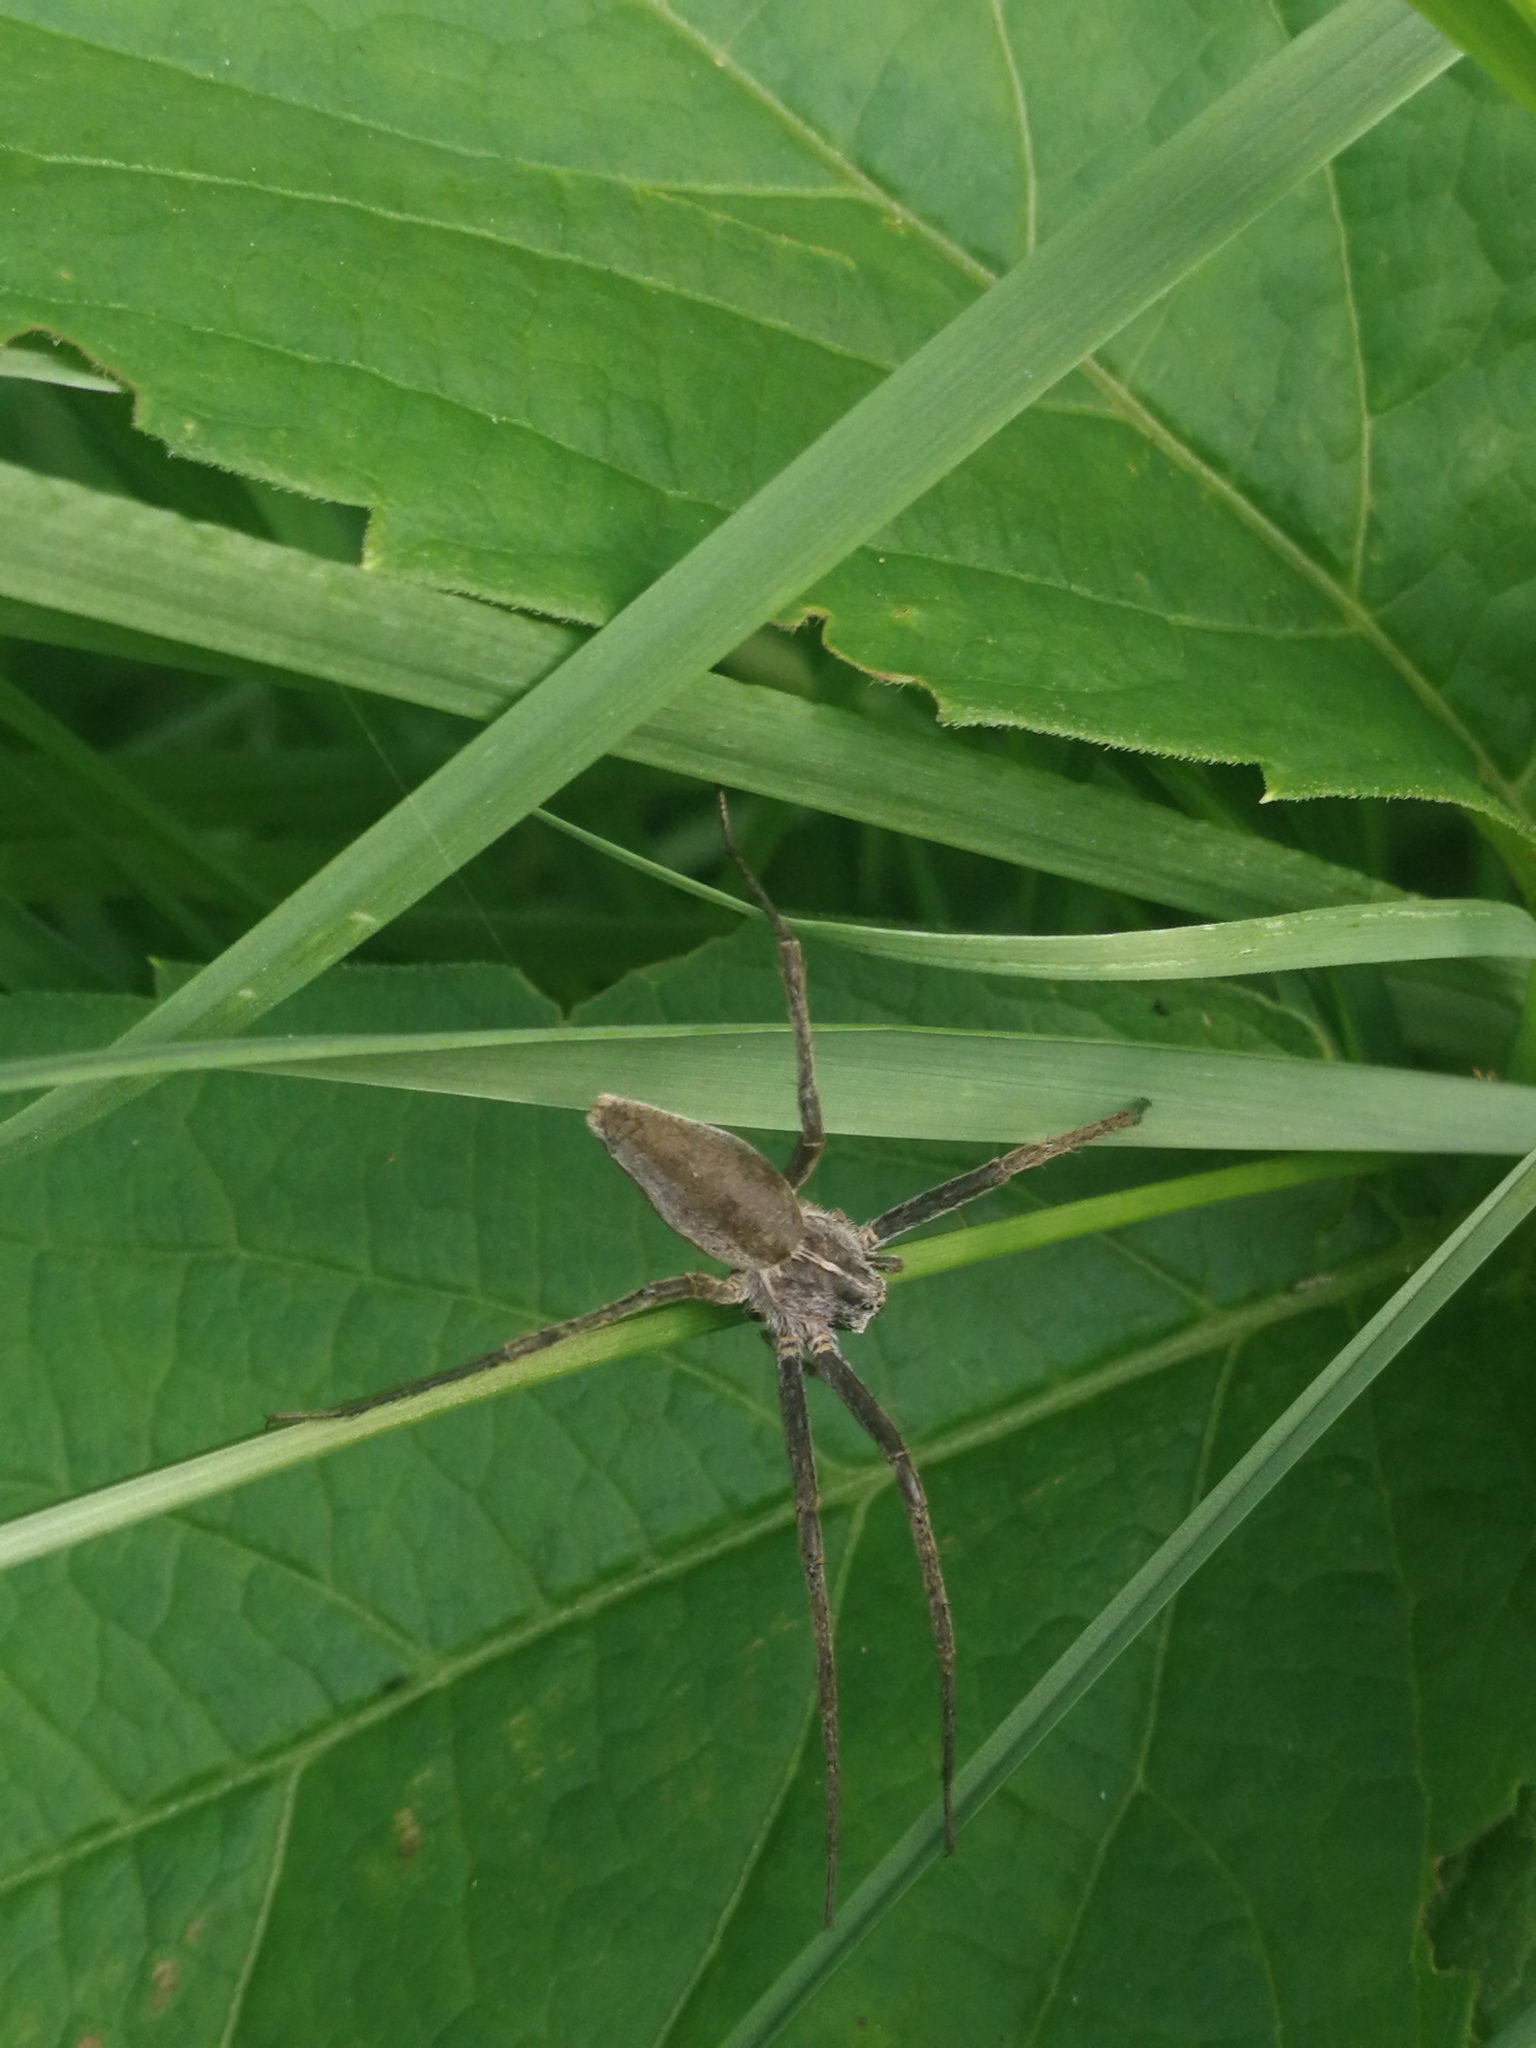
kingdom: Animalia
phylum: Arthropoda
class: Arachnida
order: Araneae
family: Pisauridae
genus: Pisaura
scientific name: Pisaura mirabilis
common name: Tent spider
